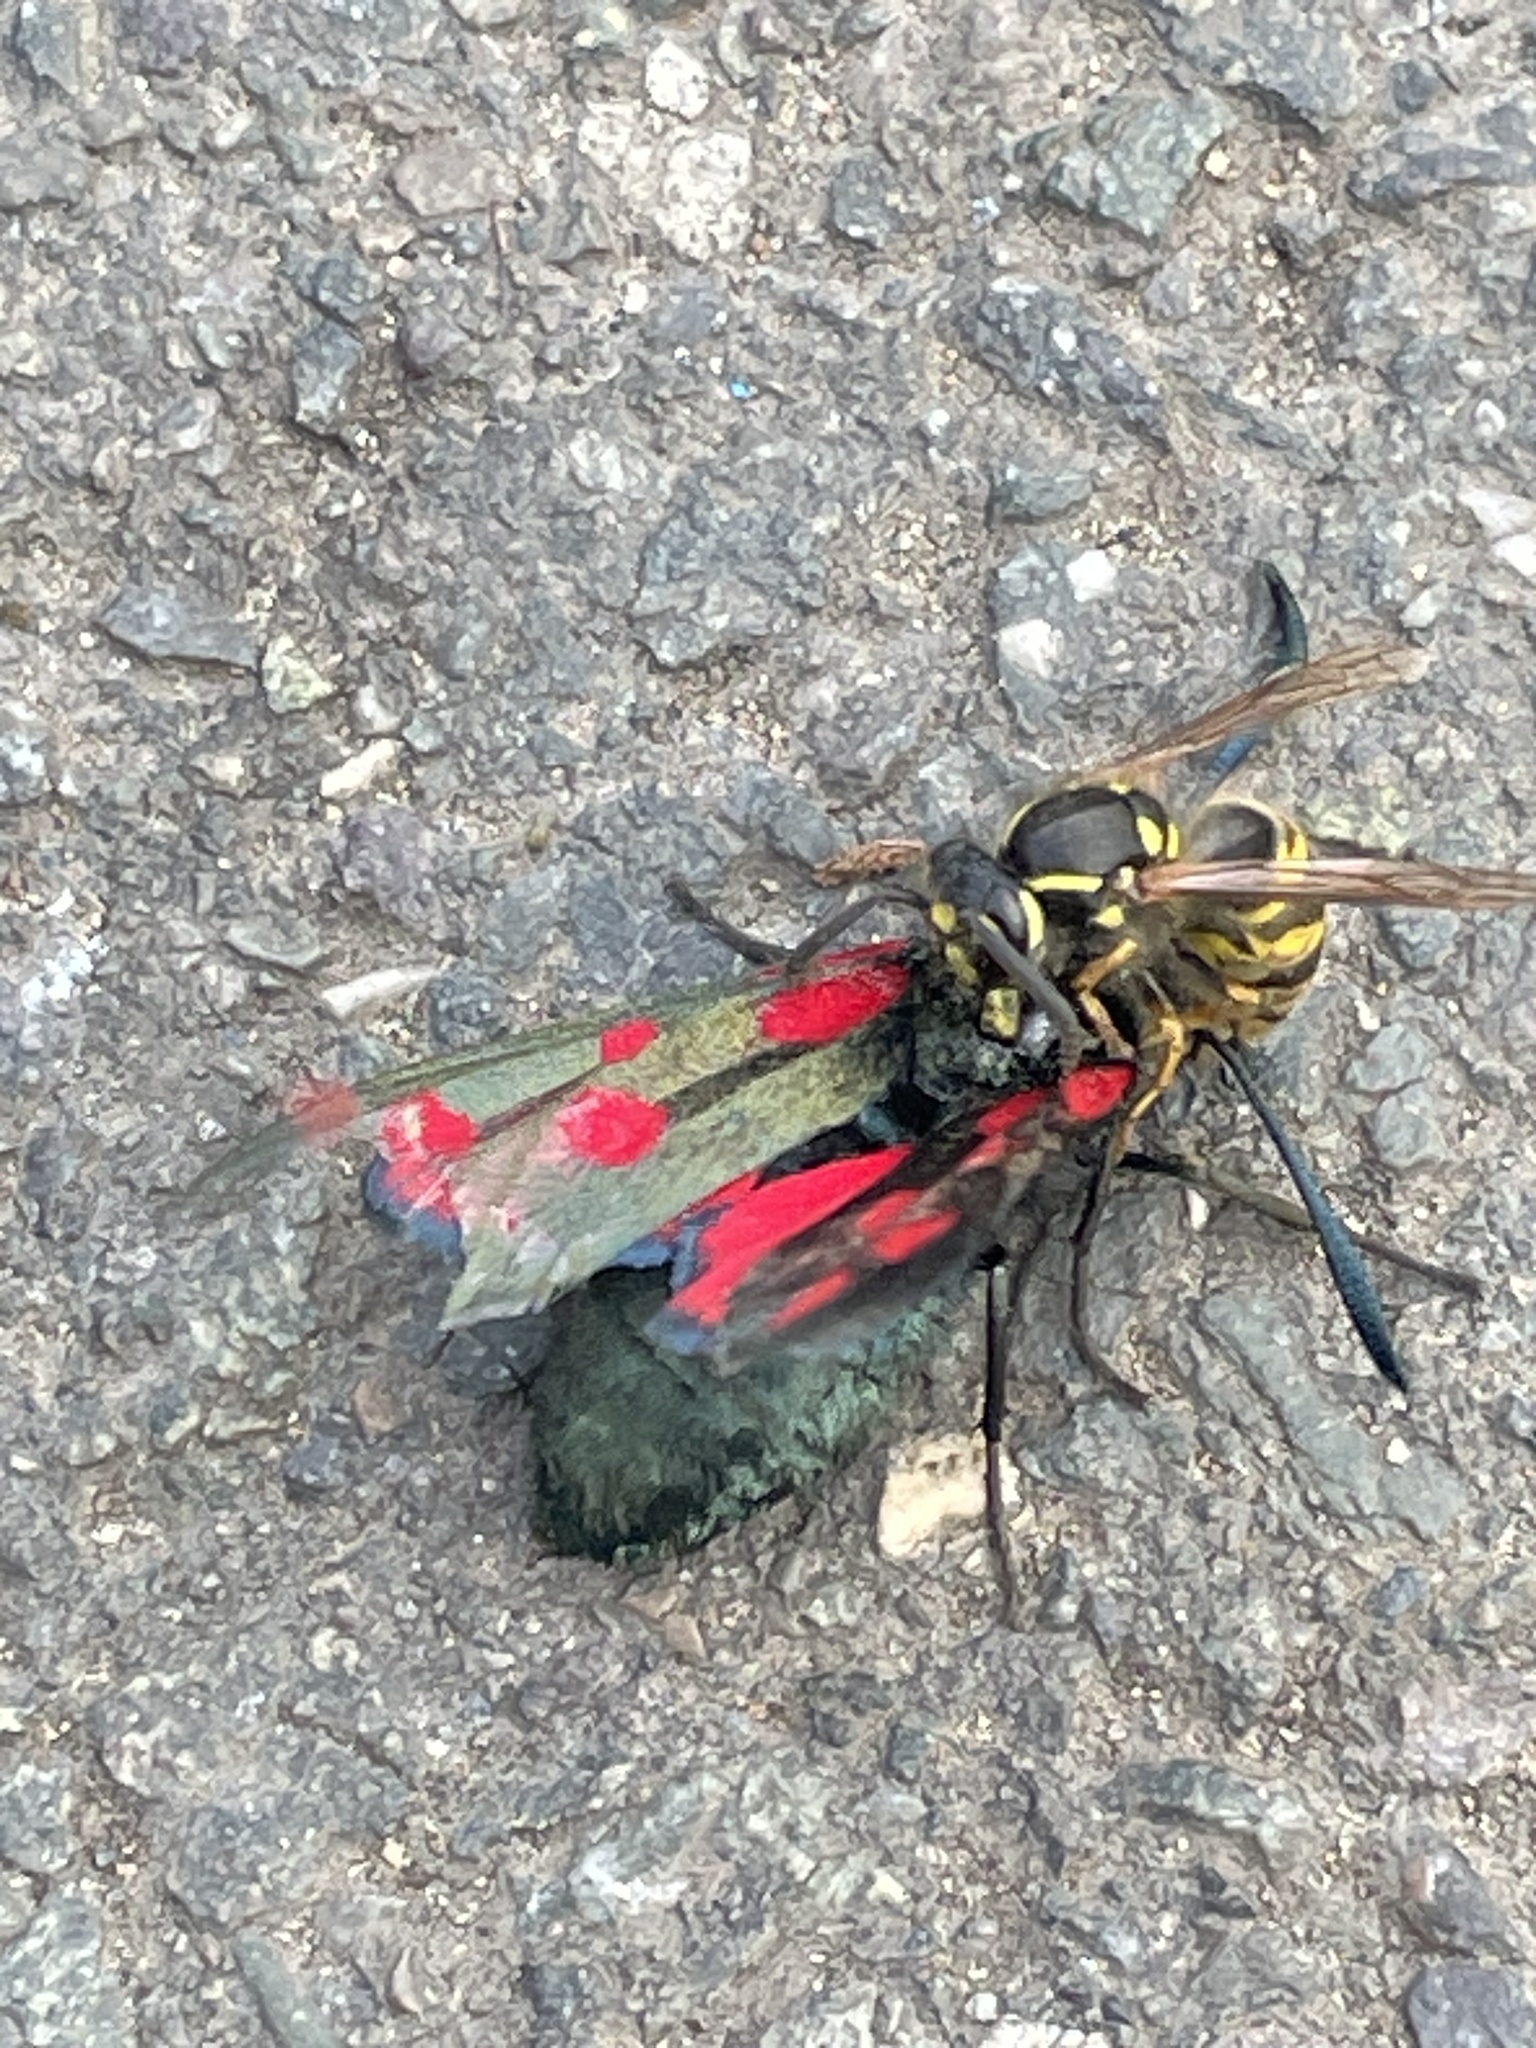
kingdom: Animalia
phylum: Arthropoda
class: Insecta
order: Hymenoptera
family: Vespidae
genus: Vespula
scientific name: Vespula vulgaris
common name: Common wasp
